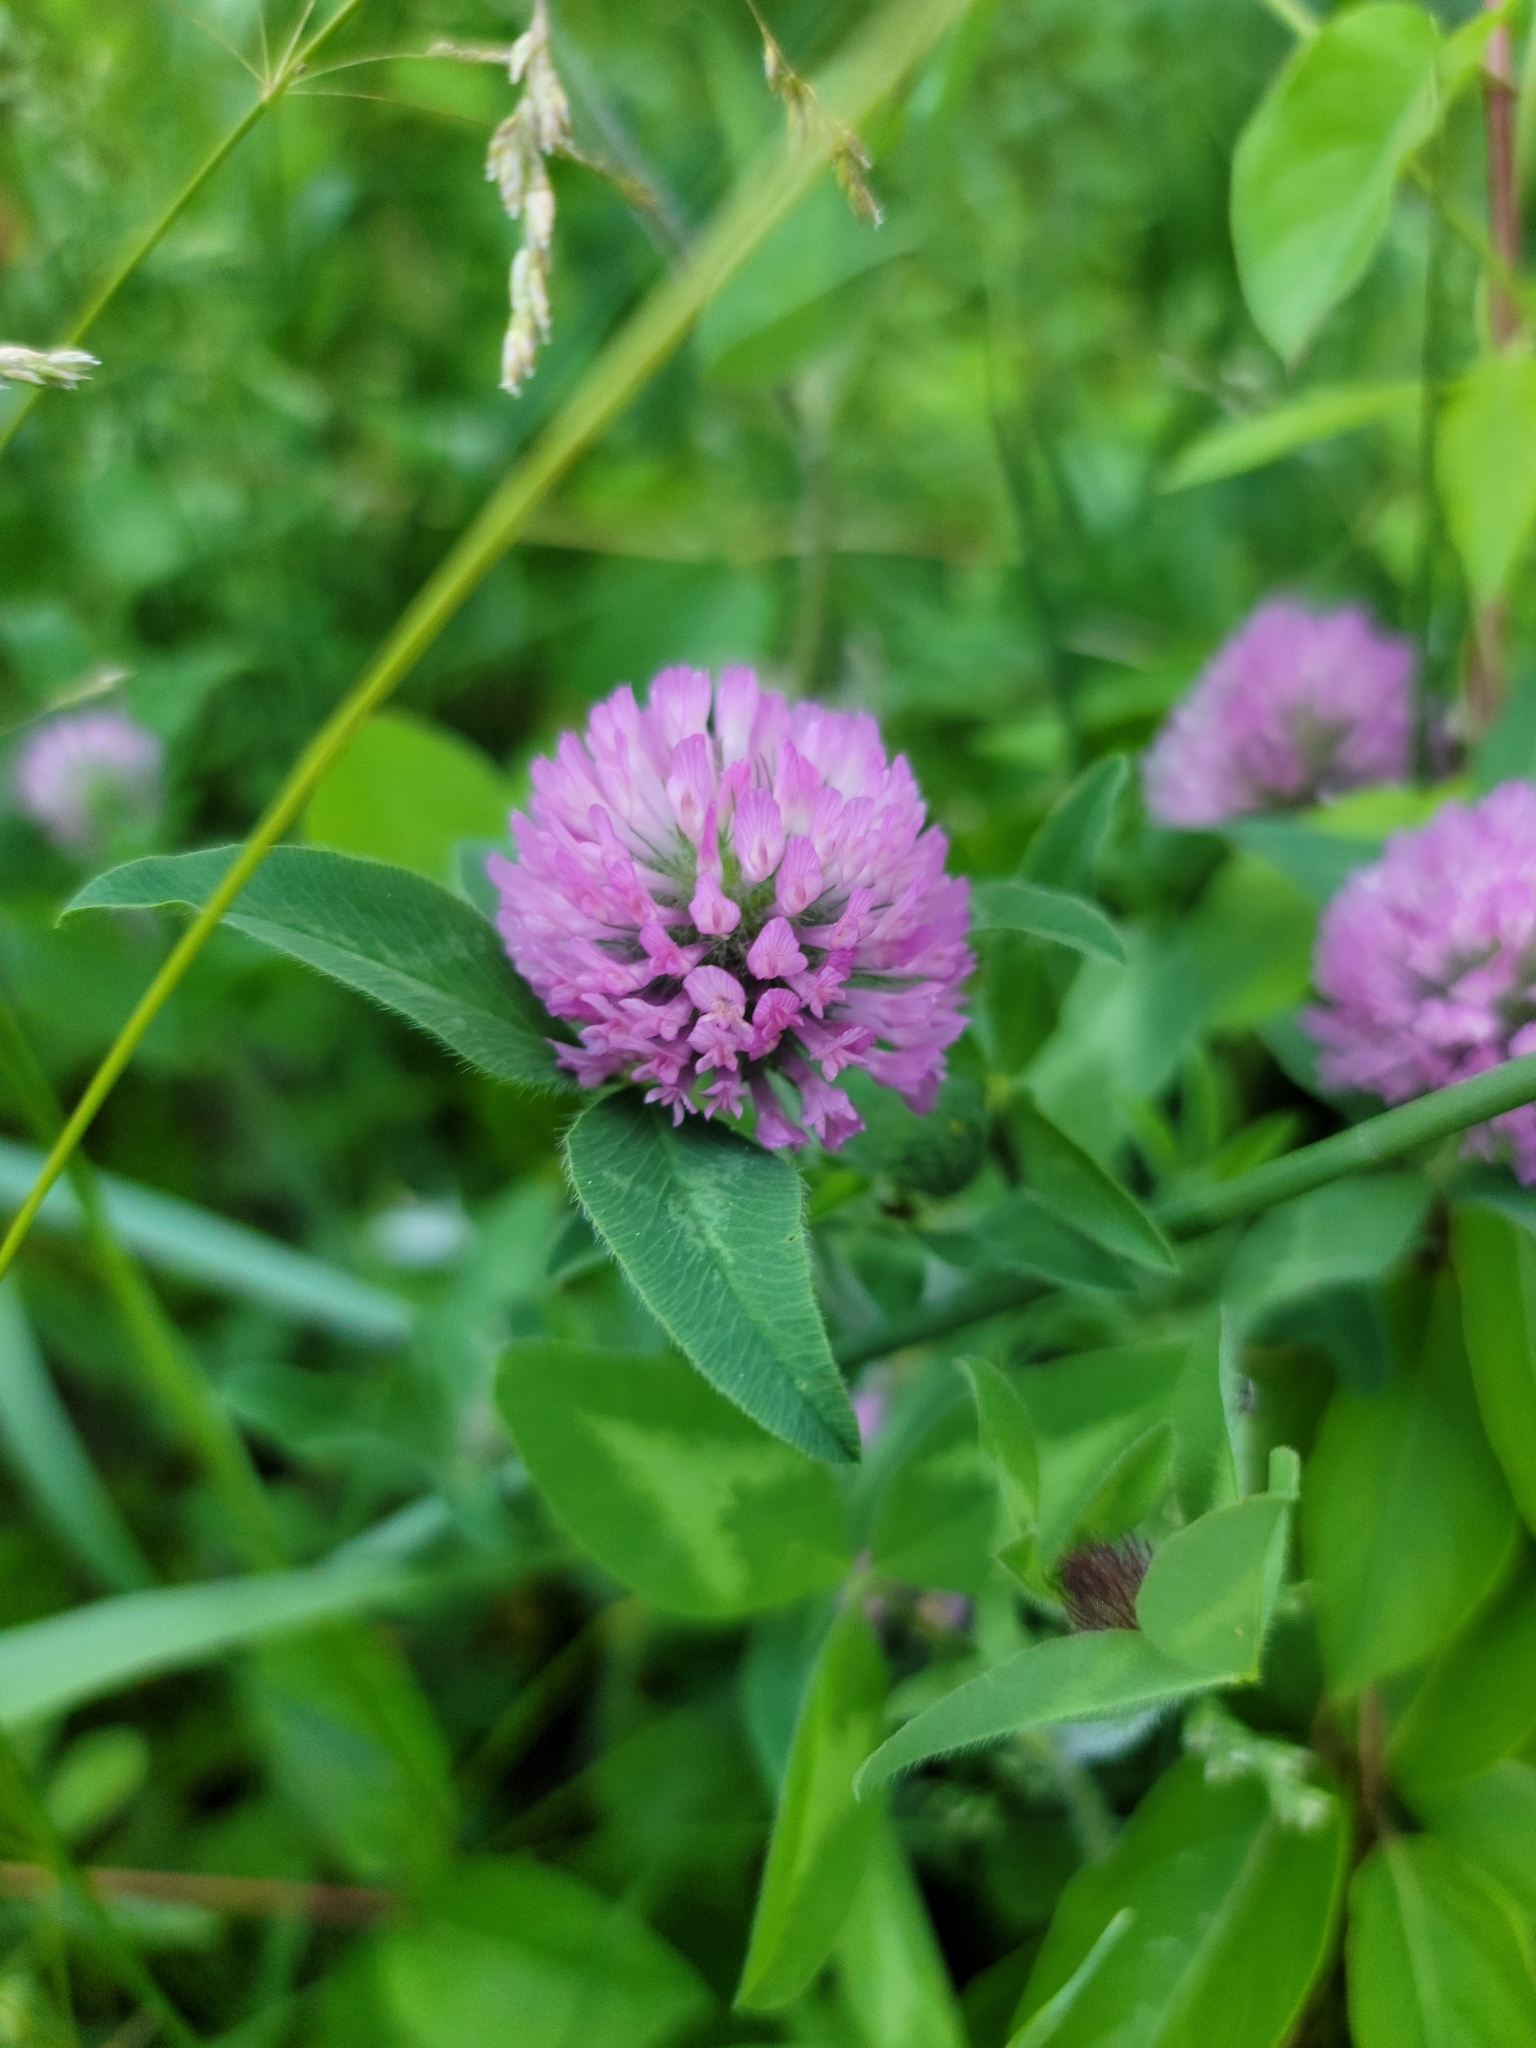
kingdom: Plantae
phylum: Tracheophyta
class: Magnoliopsida
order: Fabales
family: Fabaceae
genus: Trifolium
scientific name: Trifolium pratense
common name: Red clover
